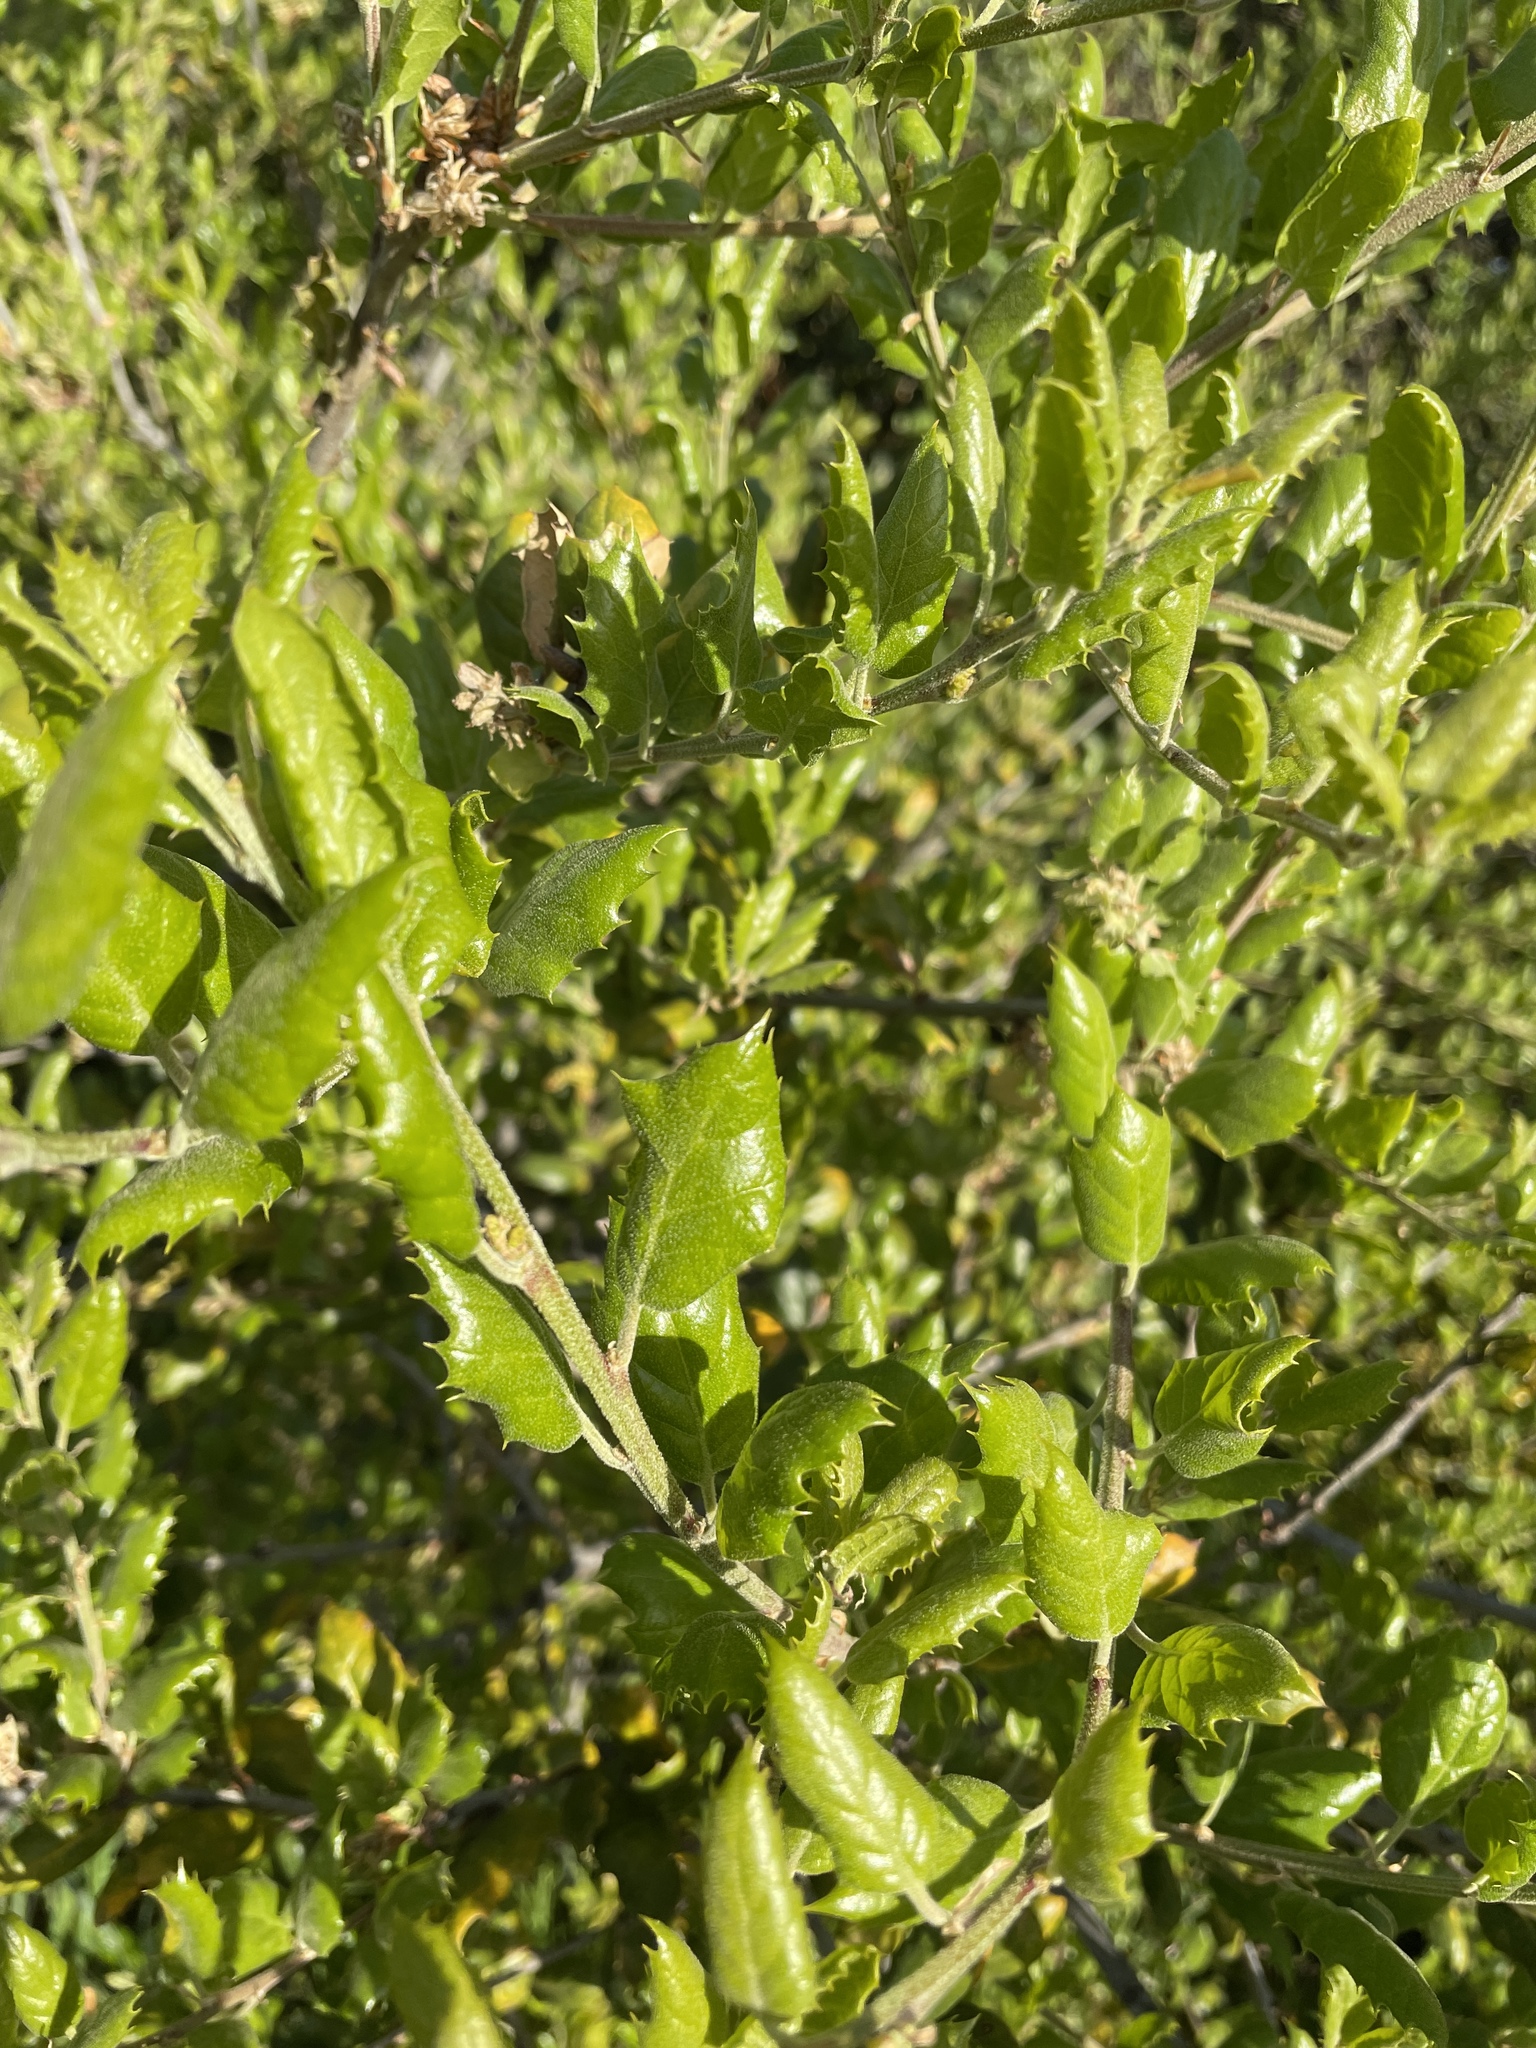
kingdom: Plantae
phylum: Tracheophyta
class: Magnoliopsida
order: Fagales
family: Fagaceae
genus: Quercus
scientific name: Quercus agrifolia
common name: California live oak
